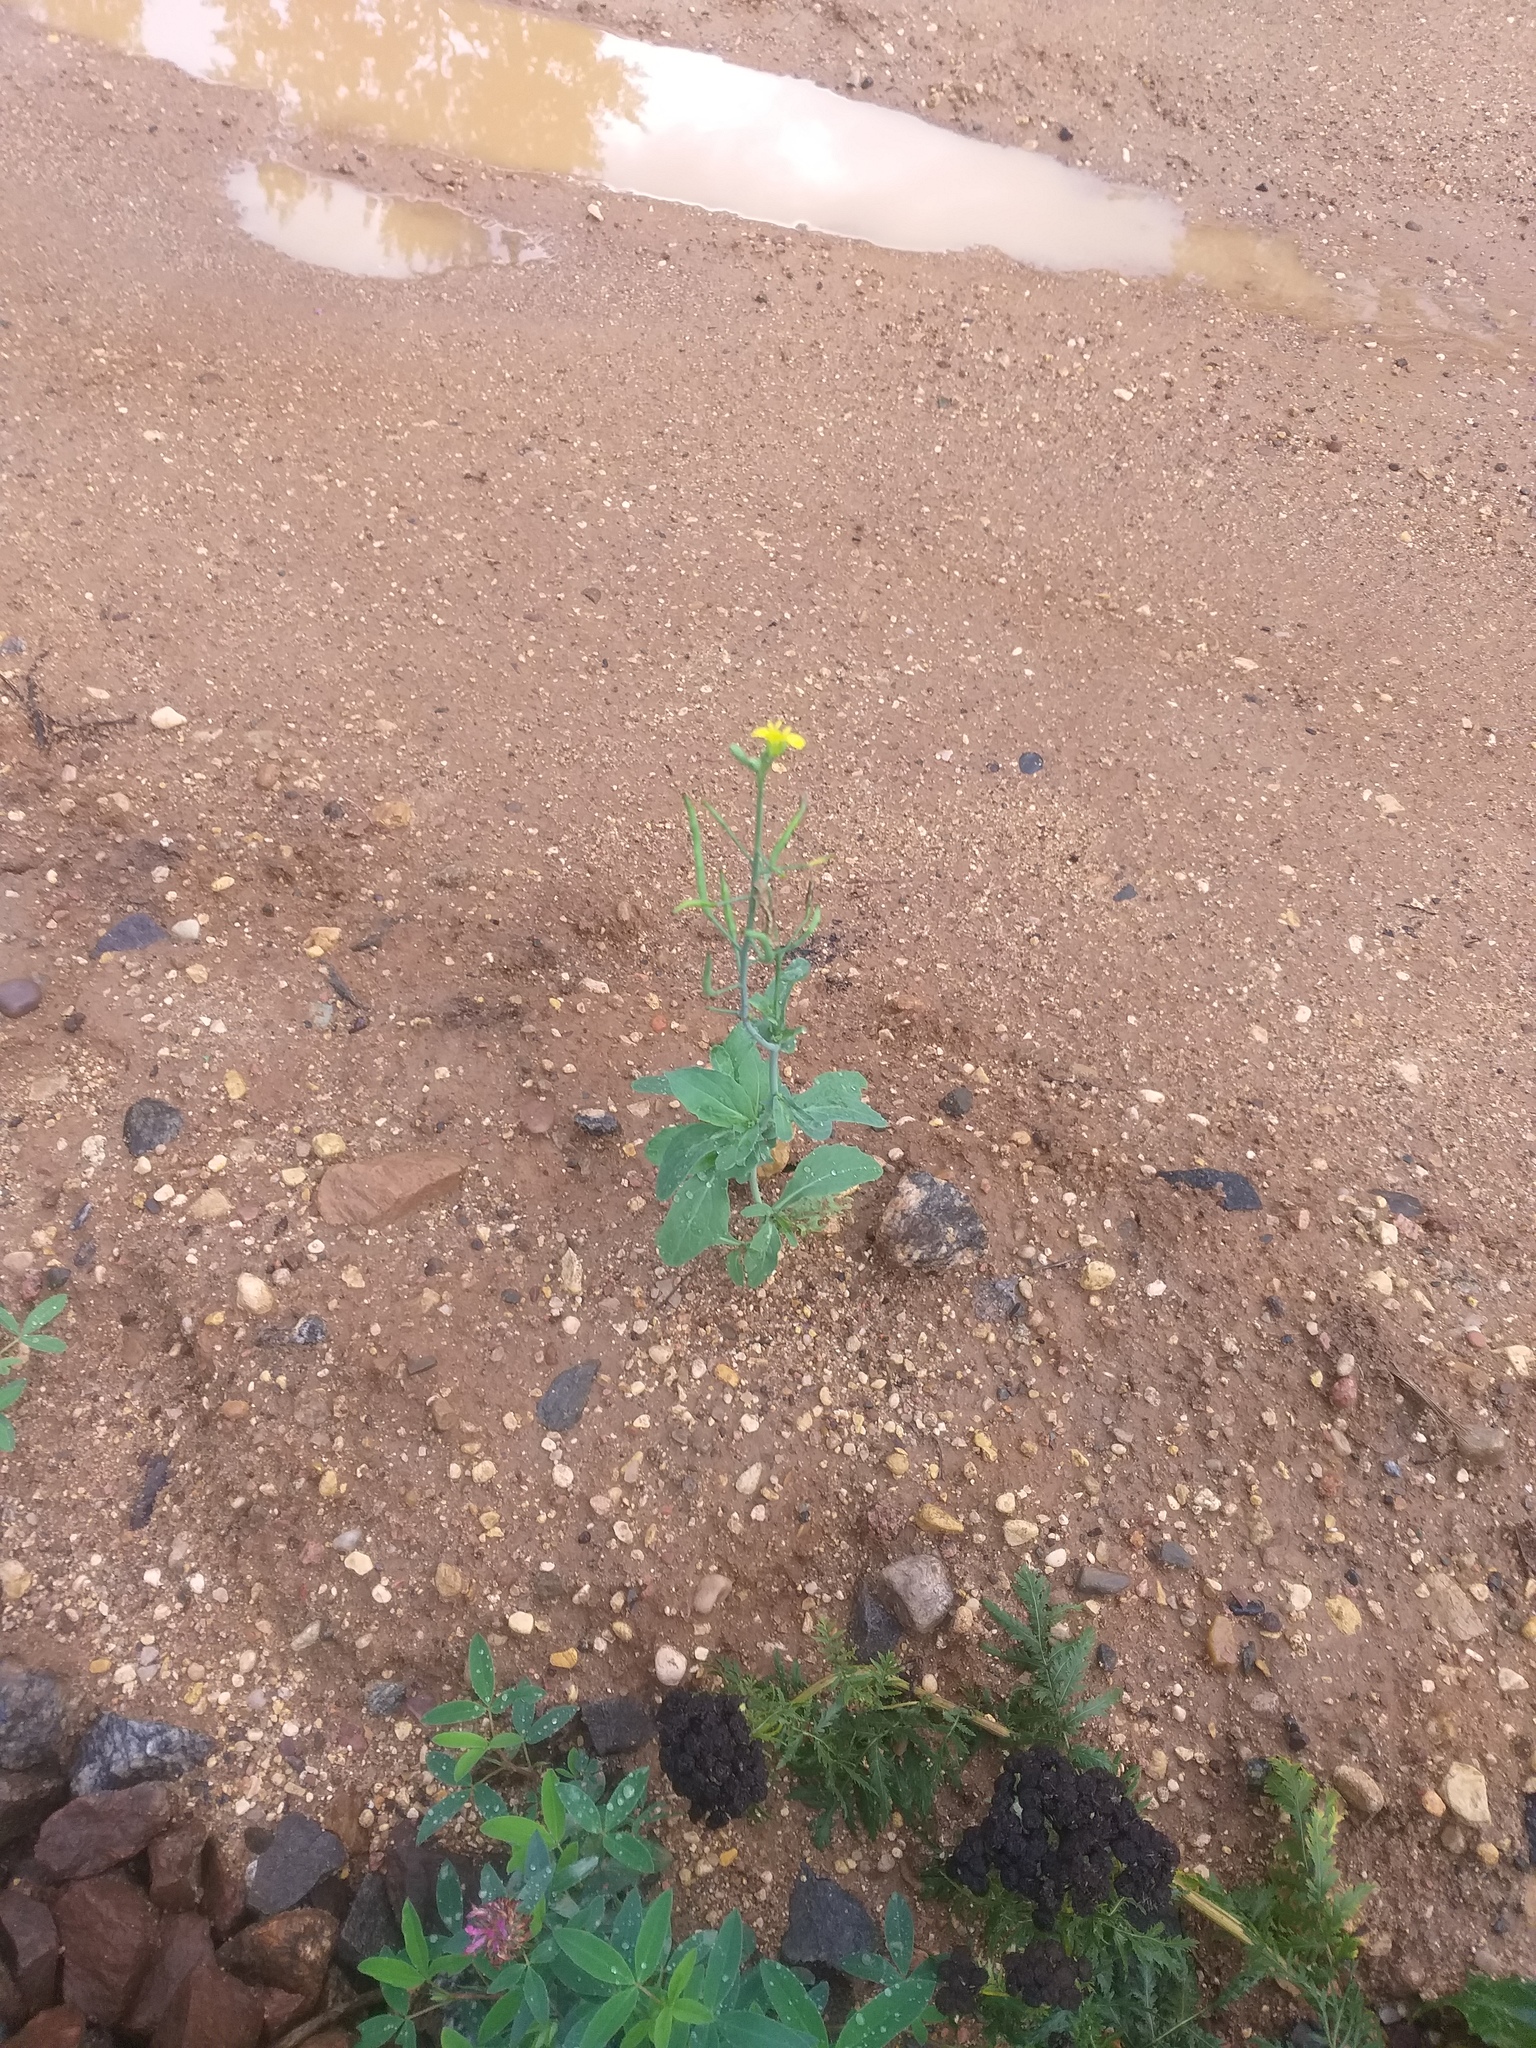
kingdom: Plantae
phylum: Tracheophyta
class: Magnoliopsida
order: Brassicales
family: Brassicaceae
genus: Brassica
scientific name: Brassica napus
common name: Rape
